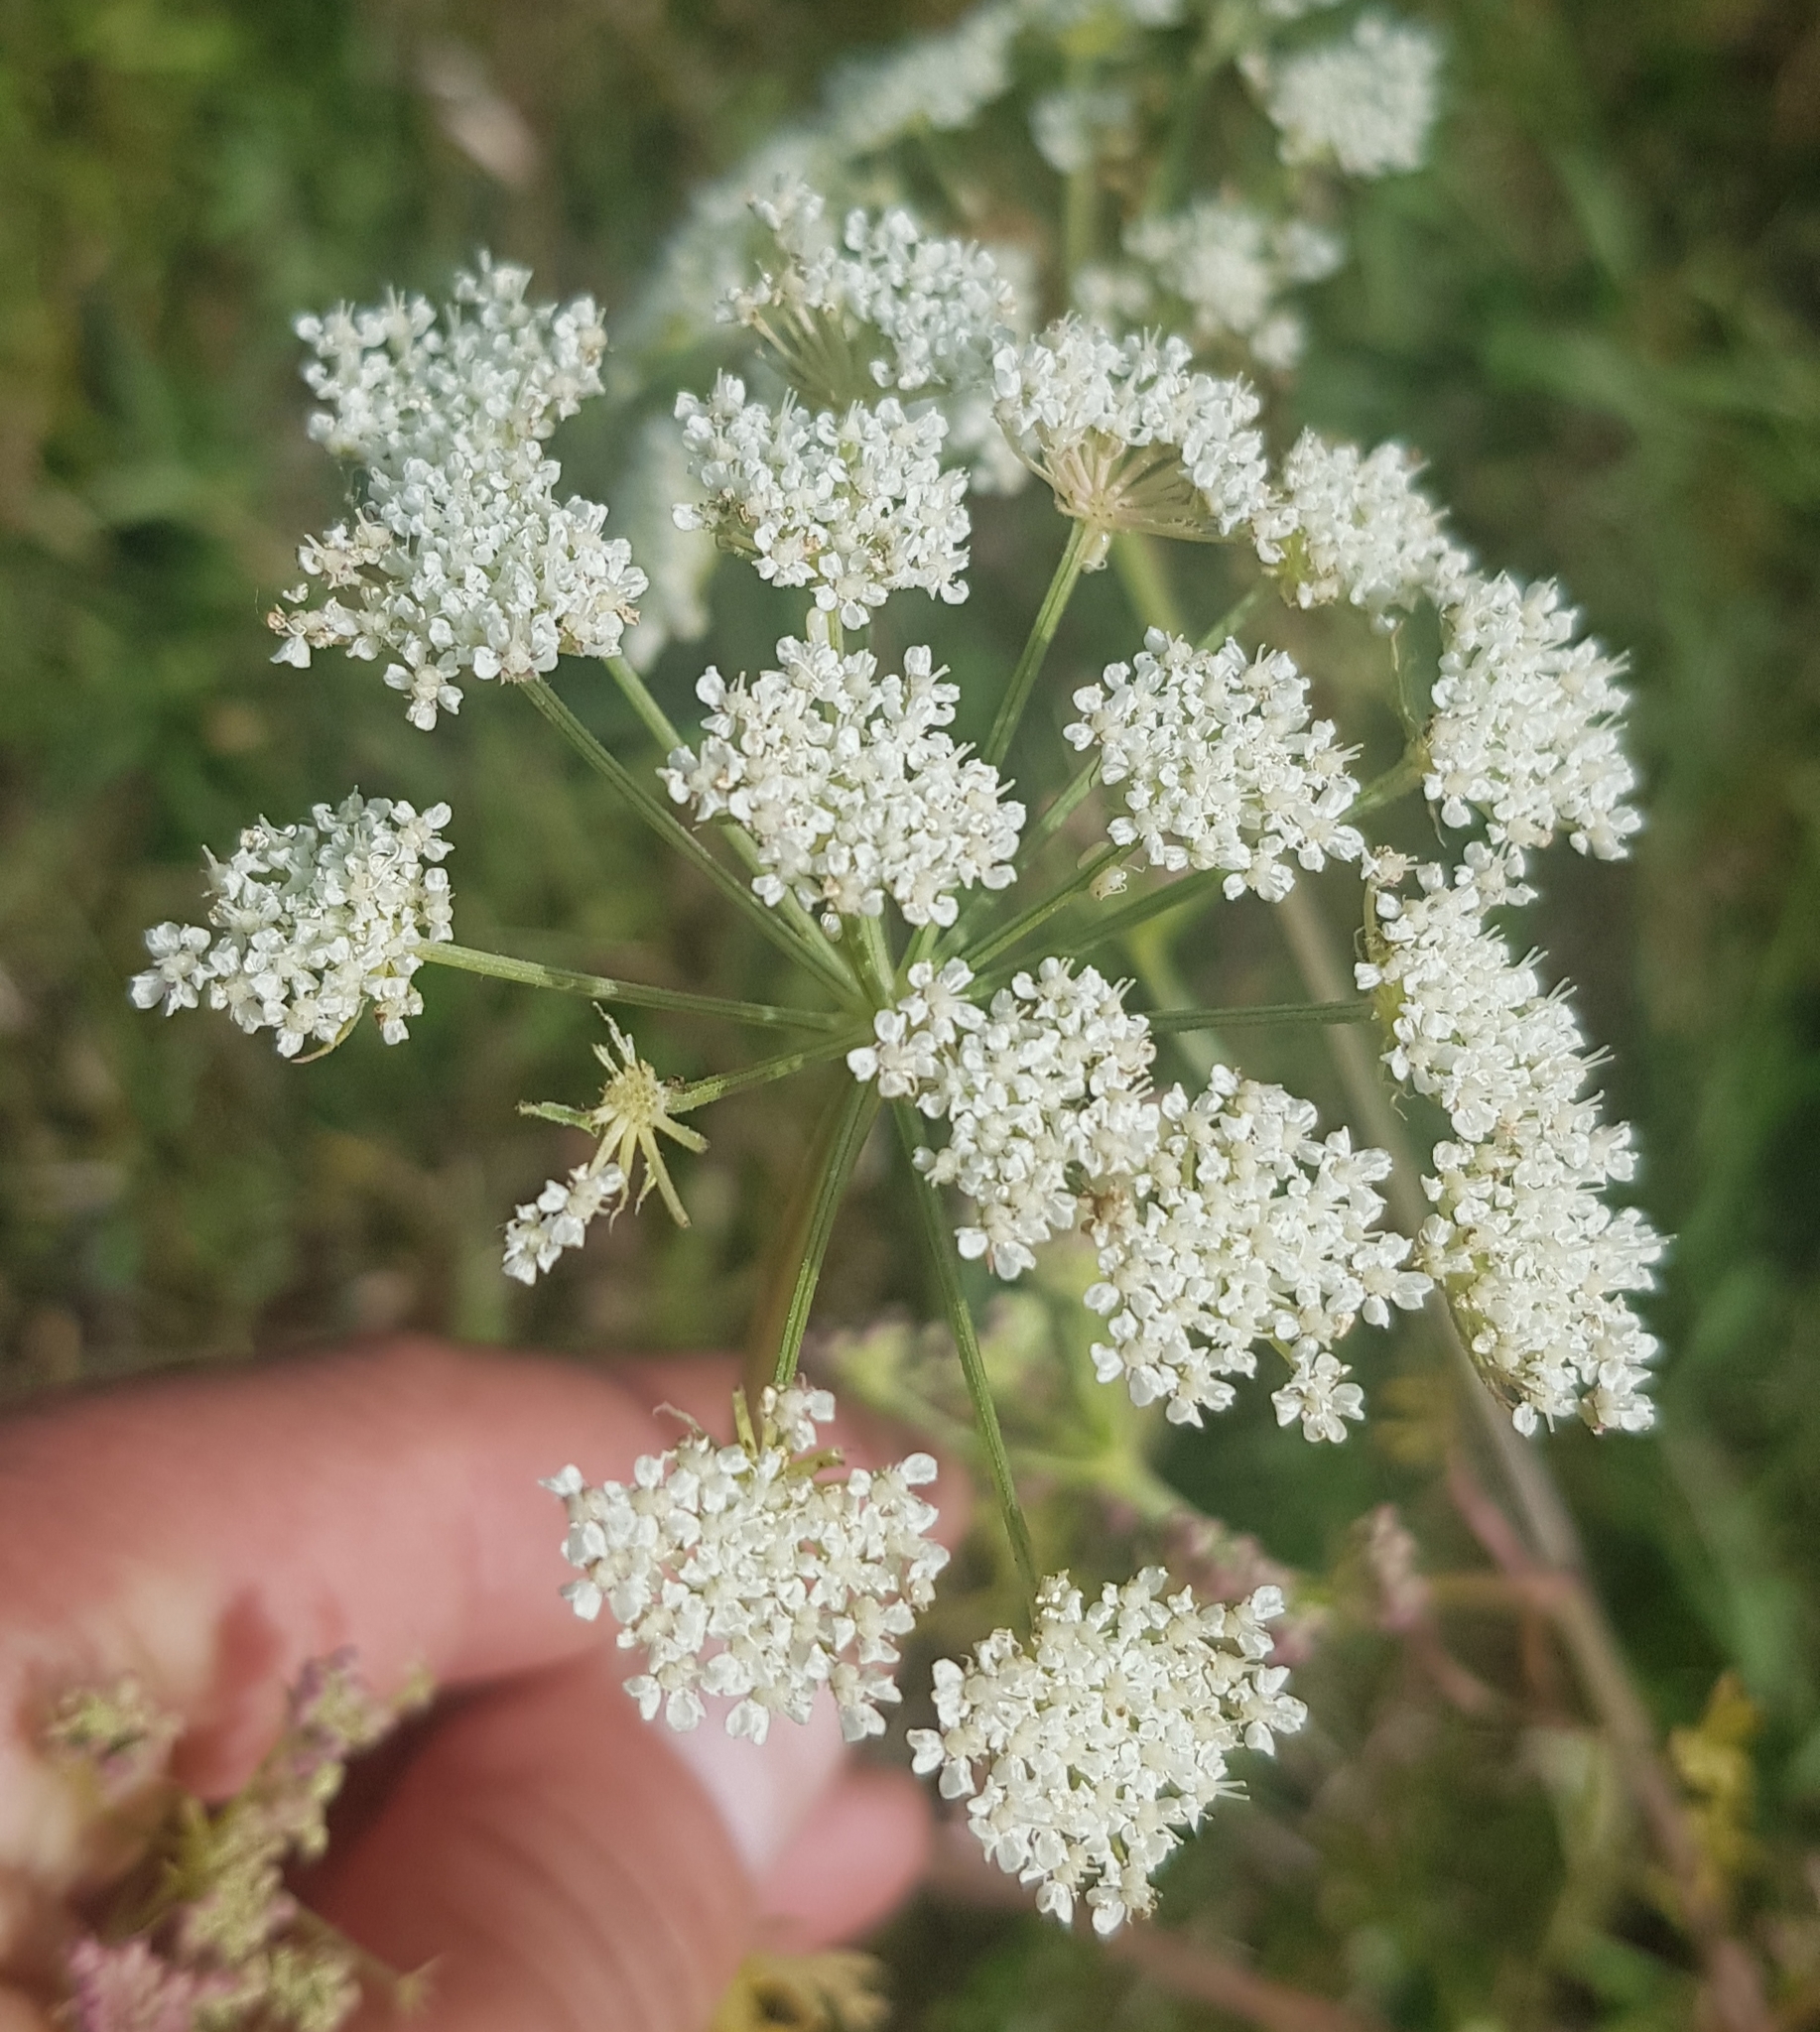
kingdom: Plantae
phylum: Tracheophyta
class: Magnoliopsida
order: Apiales
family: Apiaceae
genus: Pimpinella
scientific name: Pimpinella thellungiana
